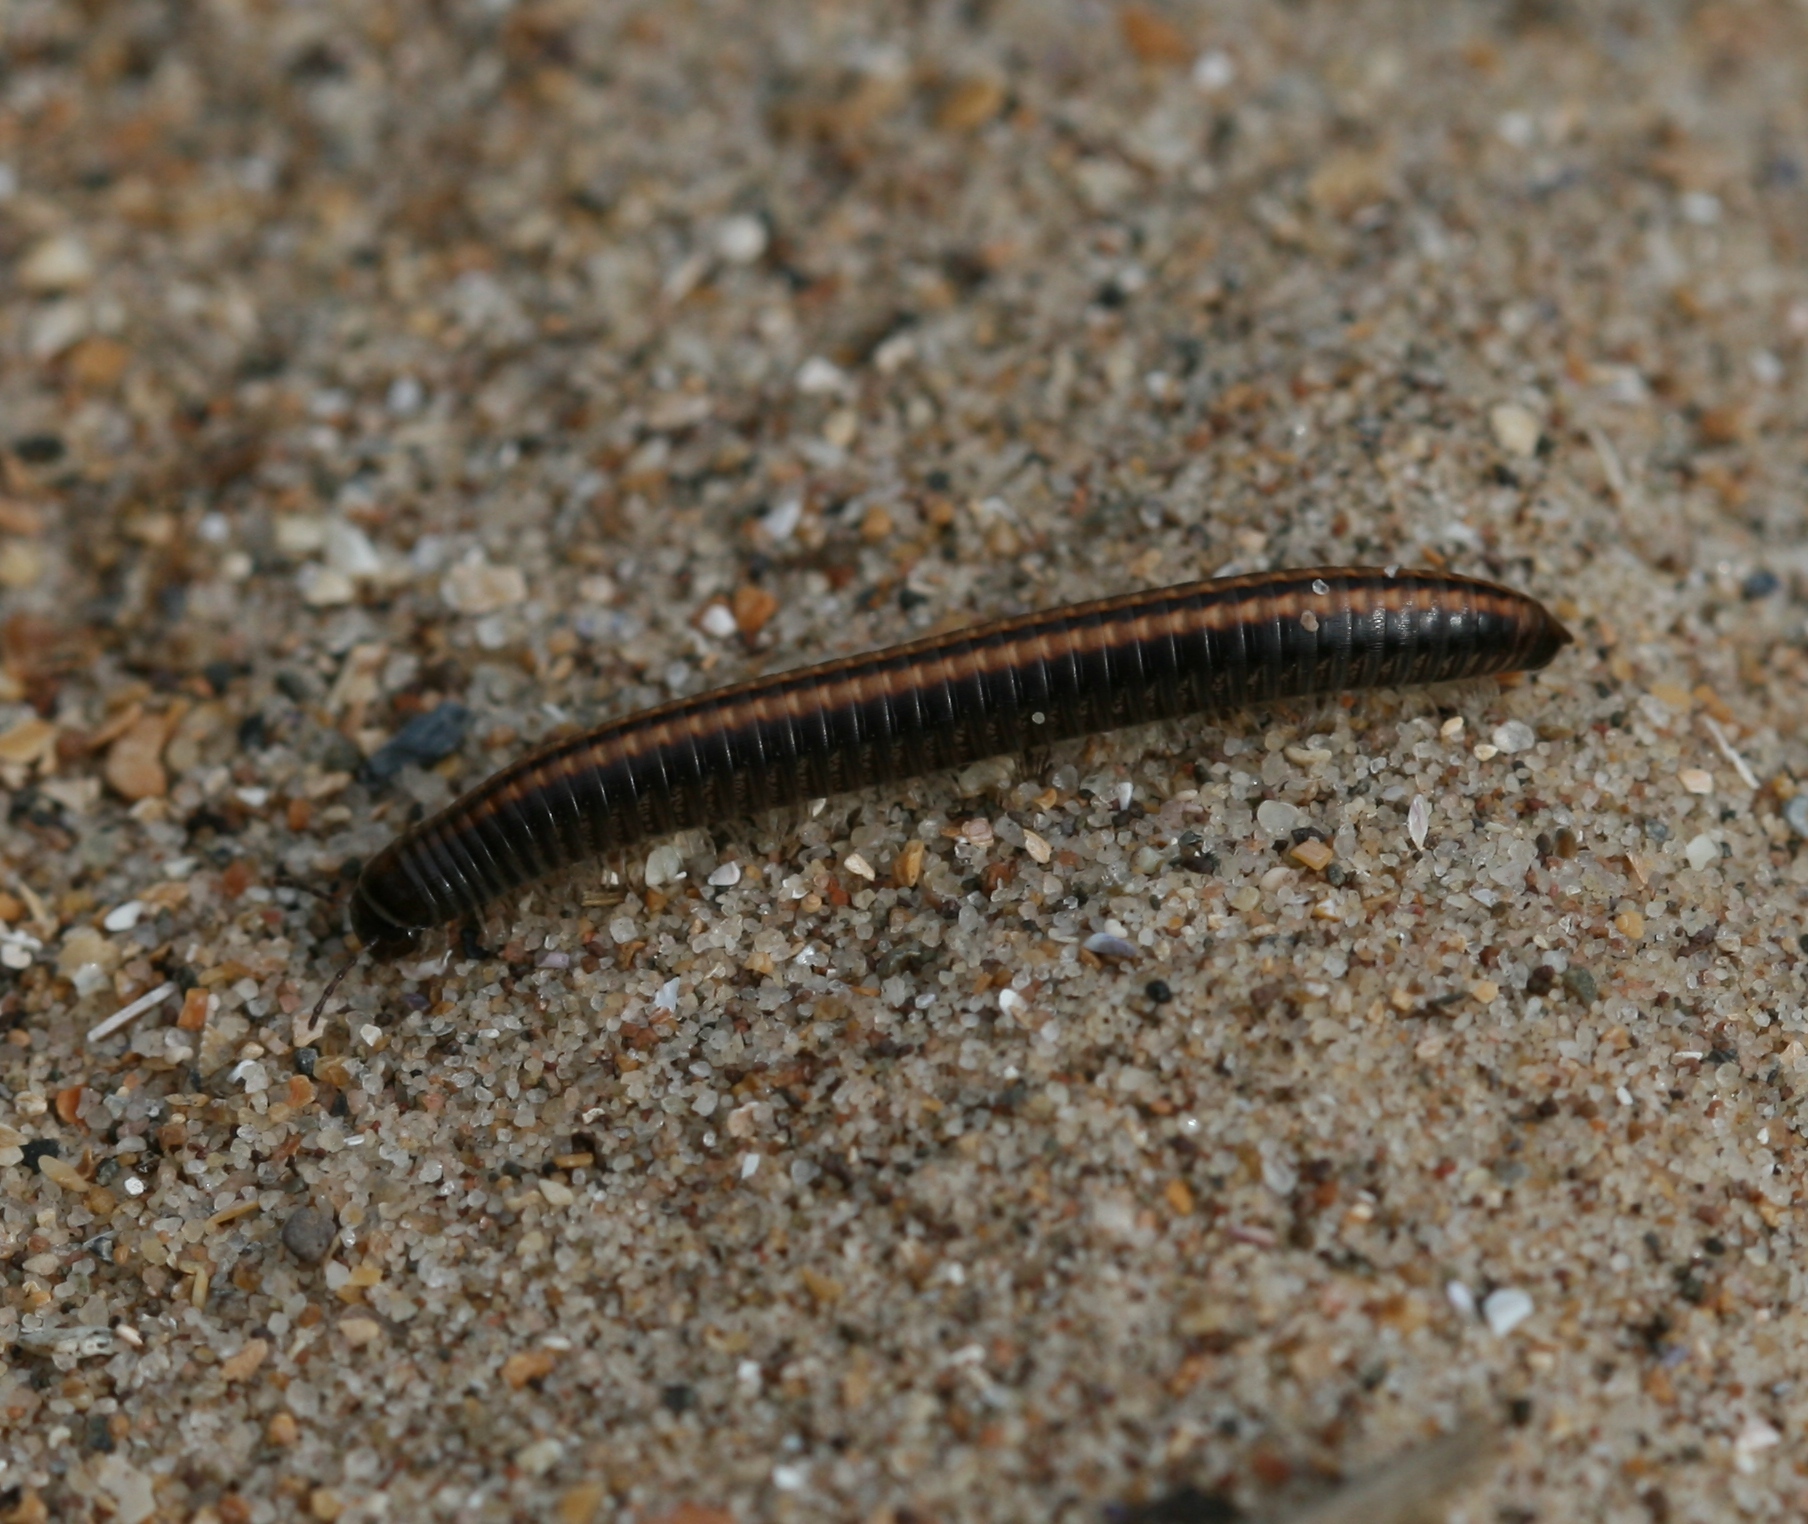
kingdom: Animalia
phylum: Arthropoda
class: Diplopoda
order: Julida
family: Julidae
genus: Ommatoiulus
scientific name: Ommatoiulus sabulosus
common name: Striped millipede
